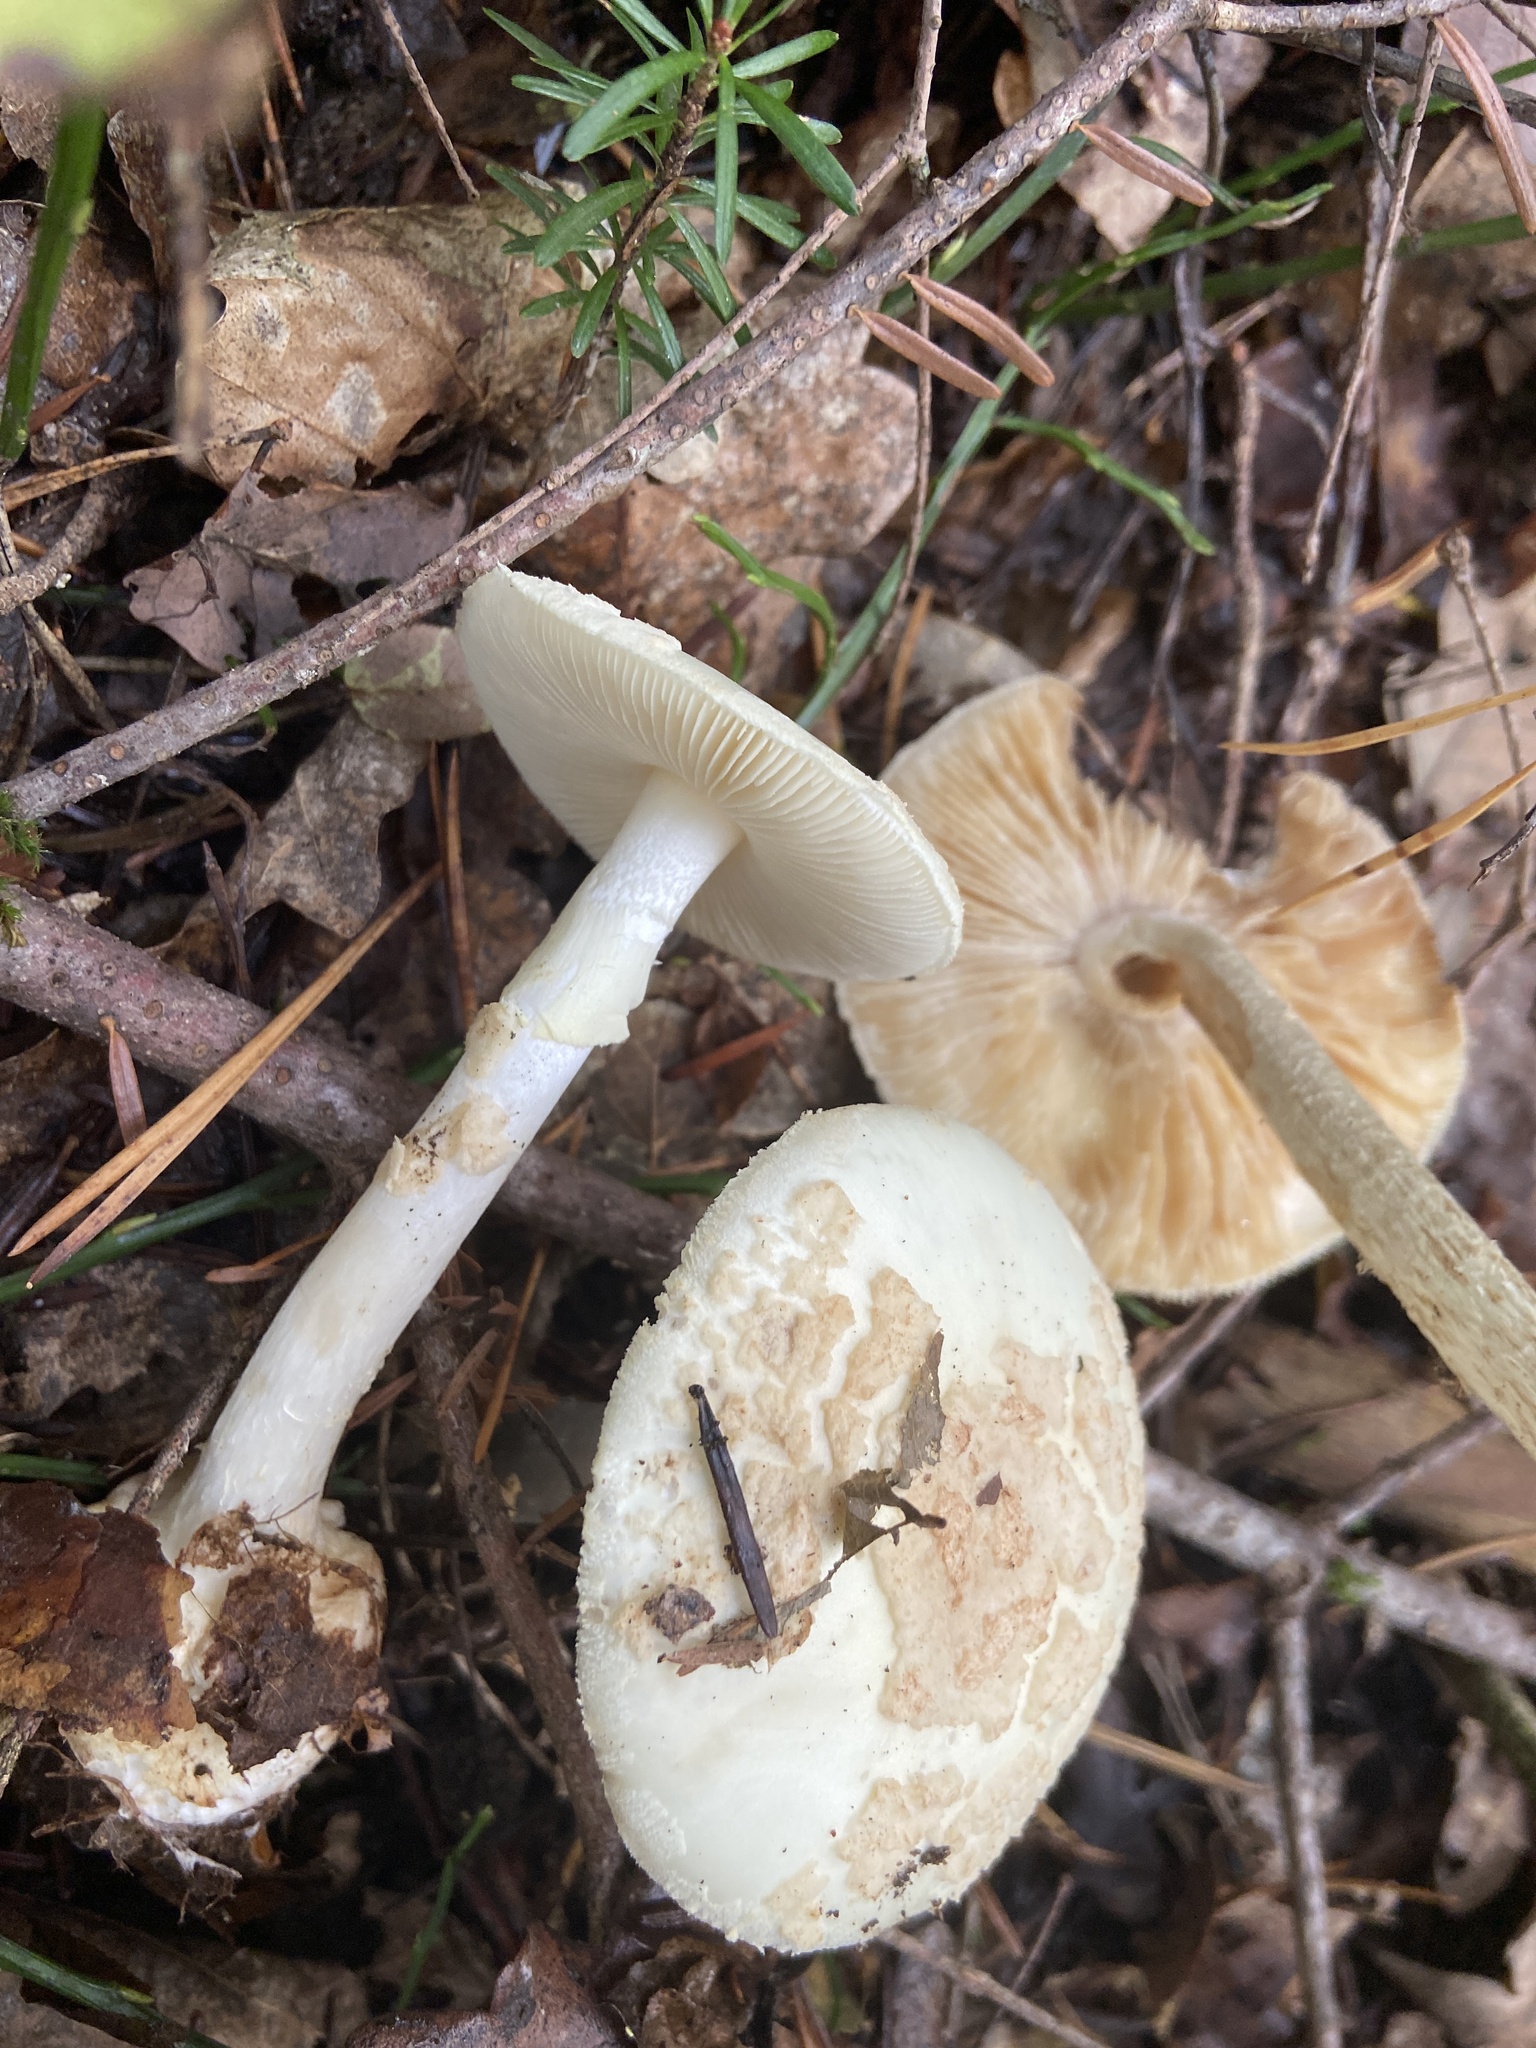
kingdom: Fungi
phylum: Basidiomycota
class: Agaricomycetes
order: Agaricales
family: Amanitaceae
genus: Amanita
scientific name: Amanita citrina
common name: False death-cap
